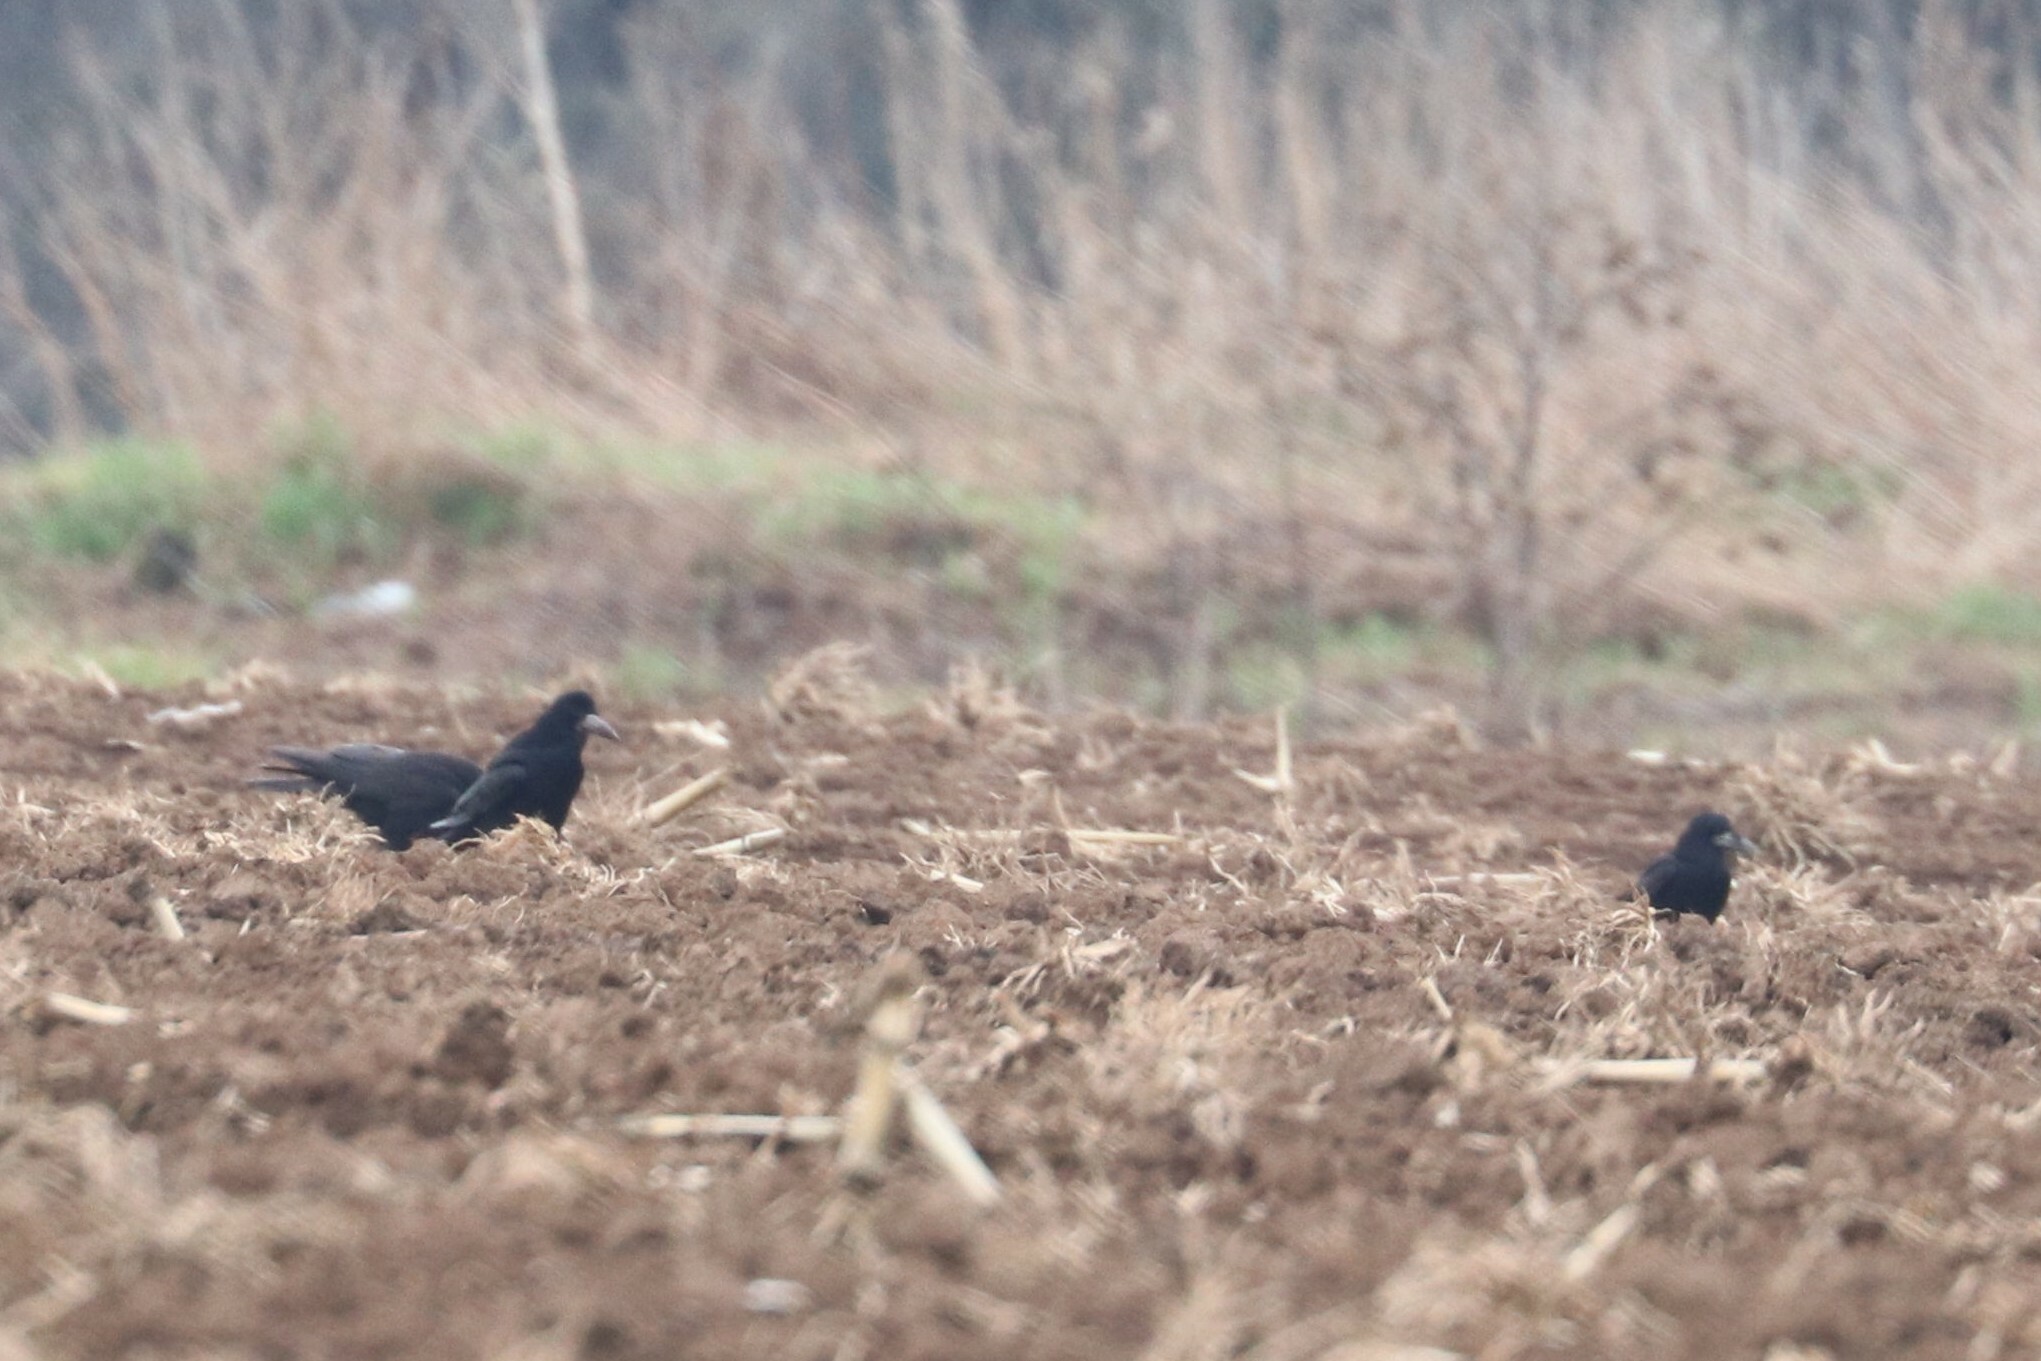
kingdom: Animalia
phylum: Chordata
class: Aves
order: Passeriformes
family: Corvidae
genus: Corvus
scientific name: Corvus frugilegus
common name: Rook
